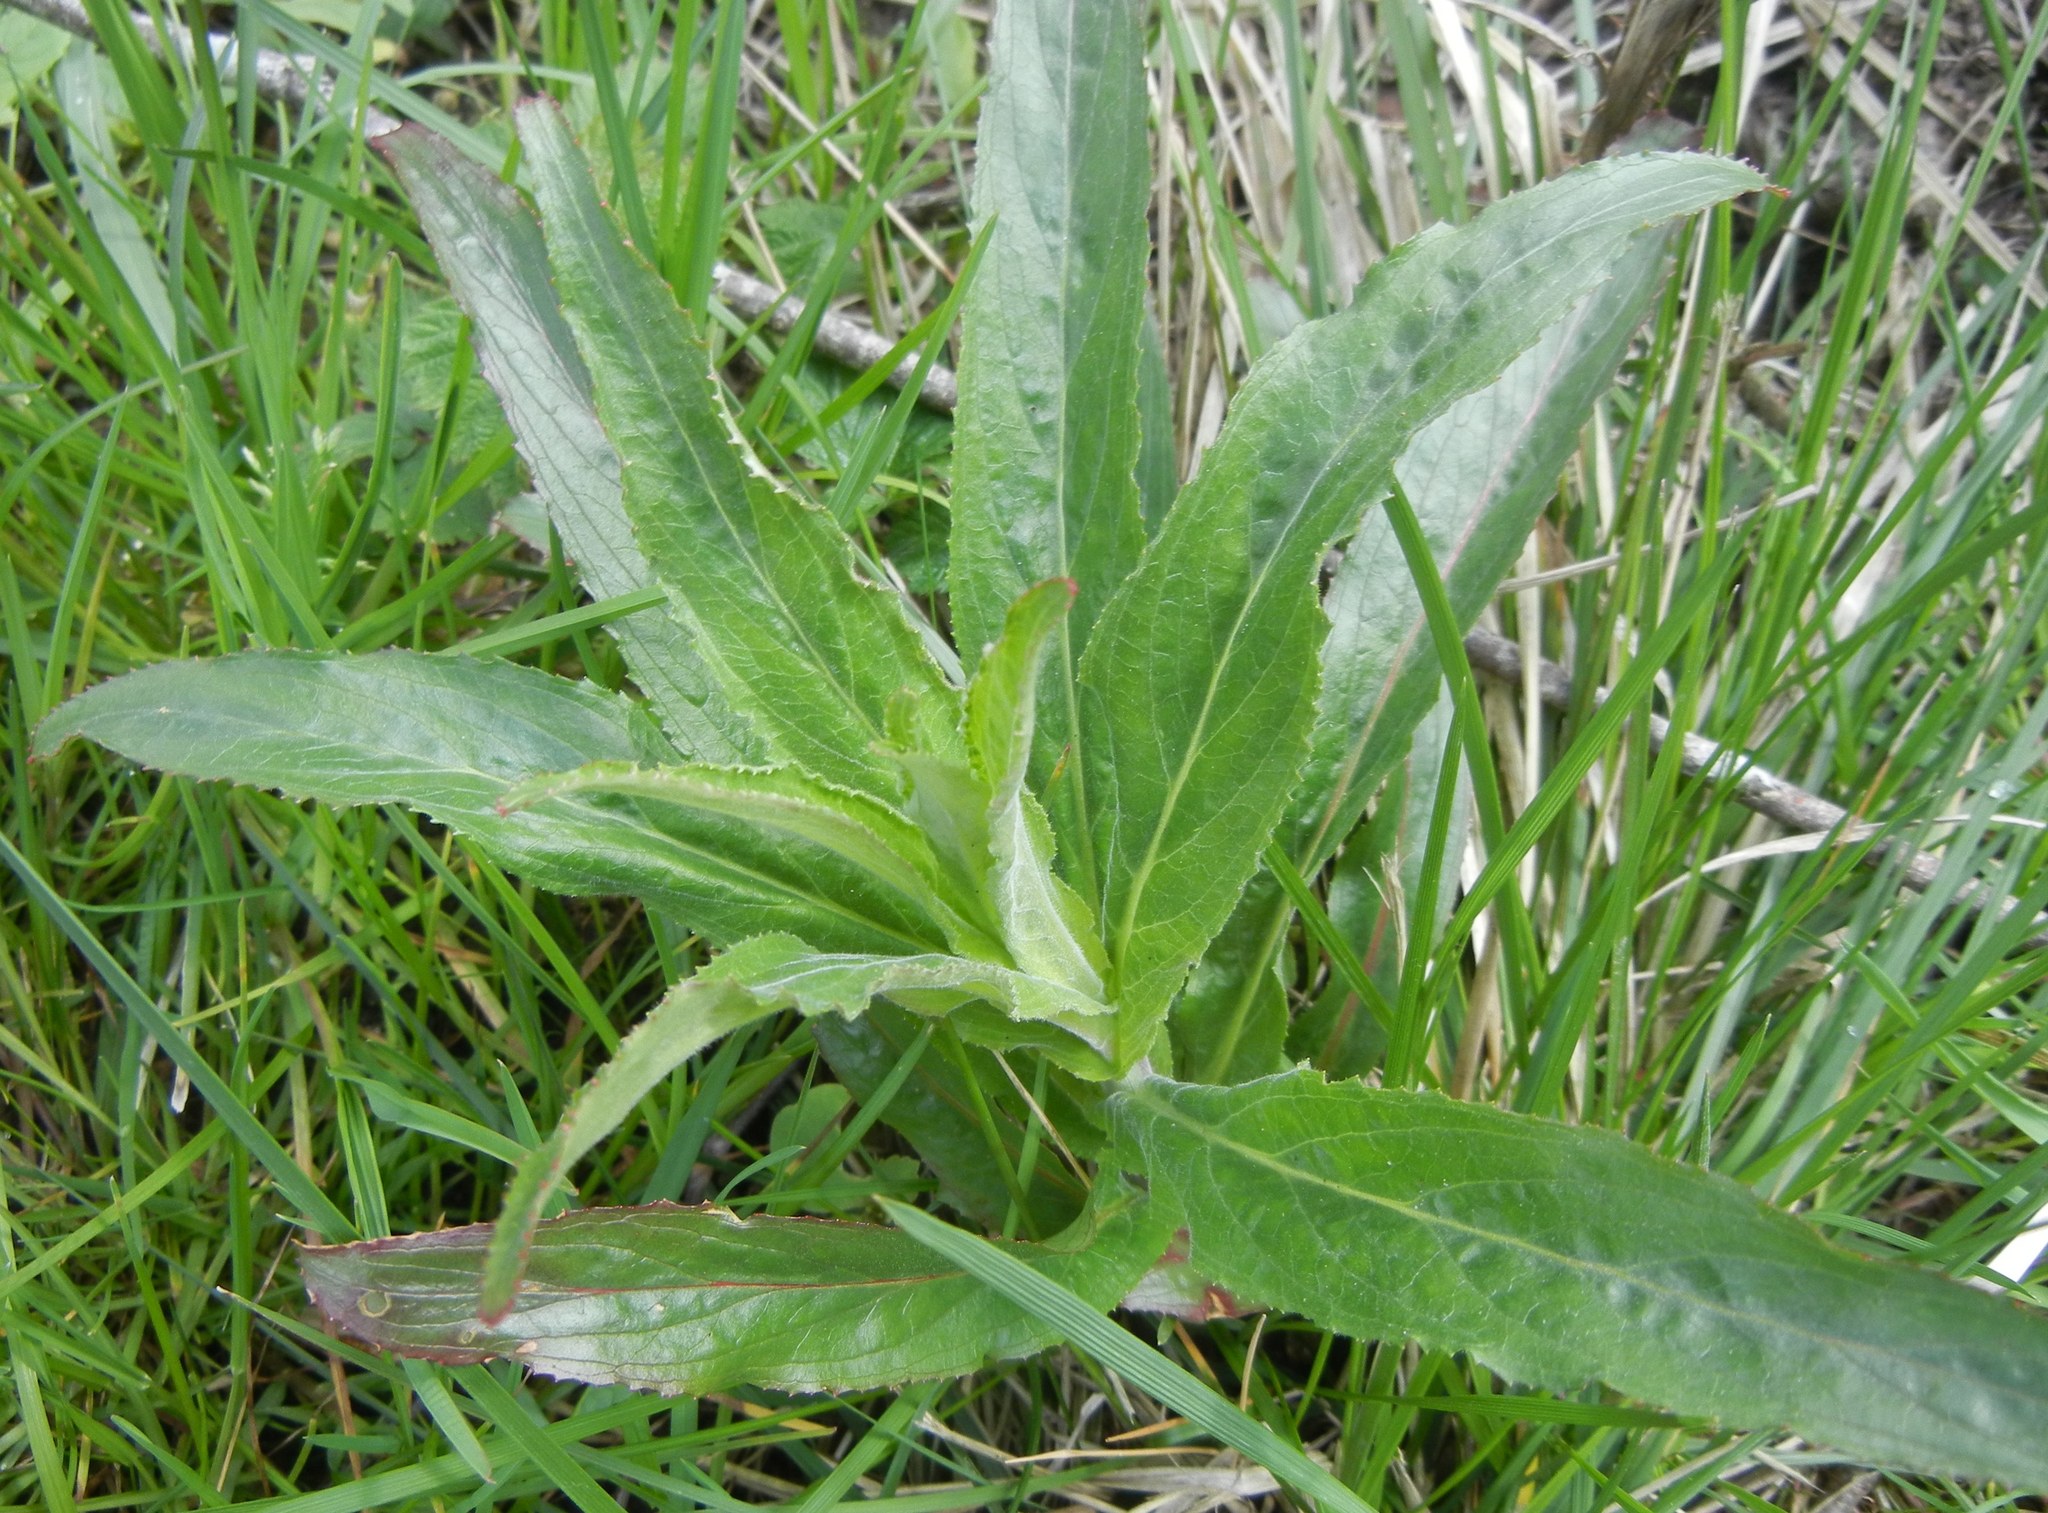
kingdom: Plantae
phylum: Tracheophyta
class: Magnoliopsida
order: Myrtales
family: Onagraceae
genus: Epilobium
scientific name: Epilobium hirsutum
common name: Great willowherb
